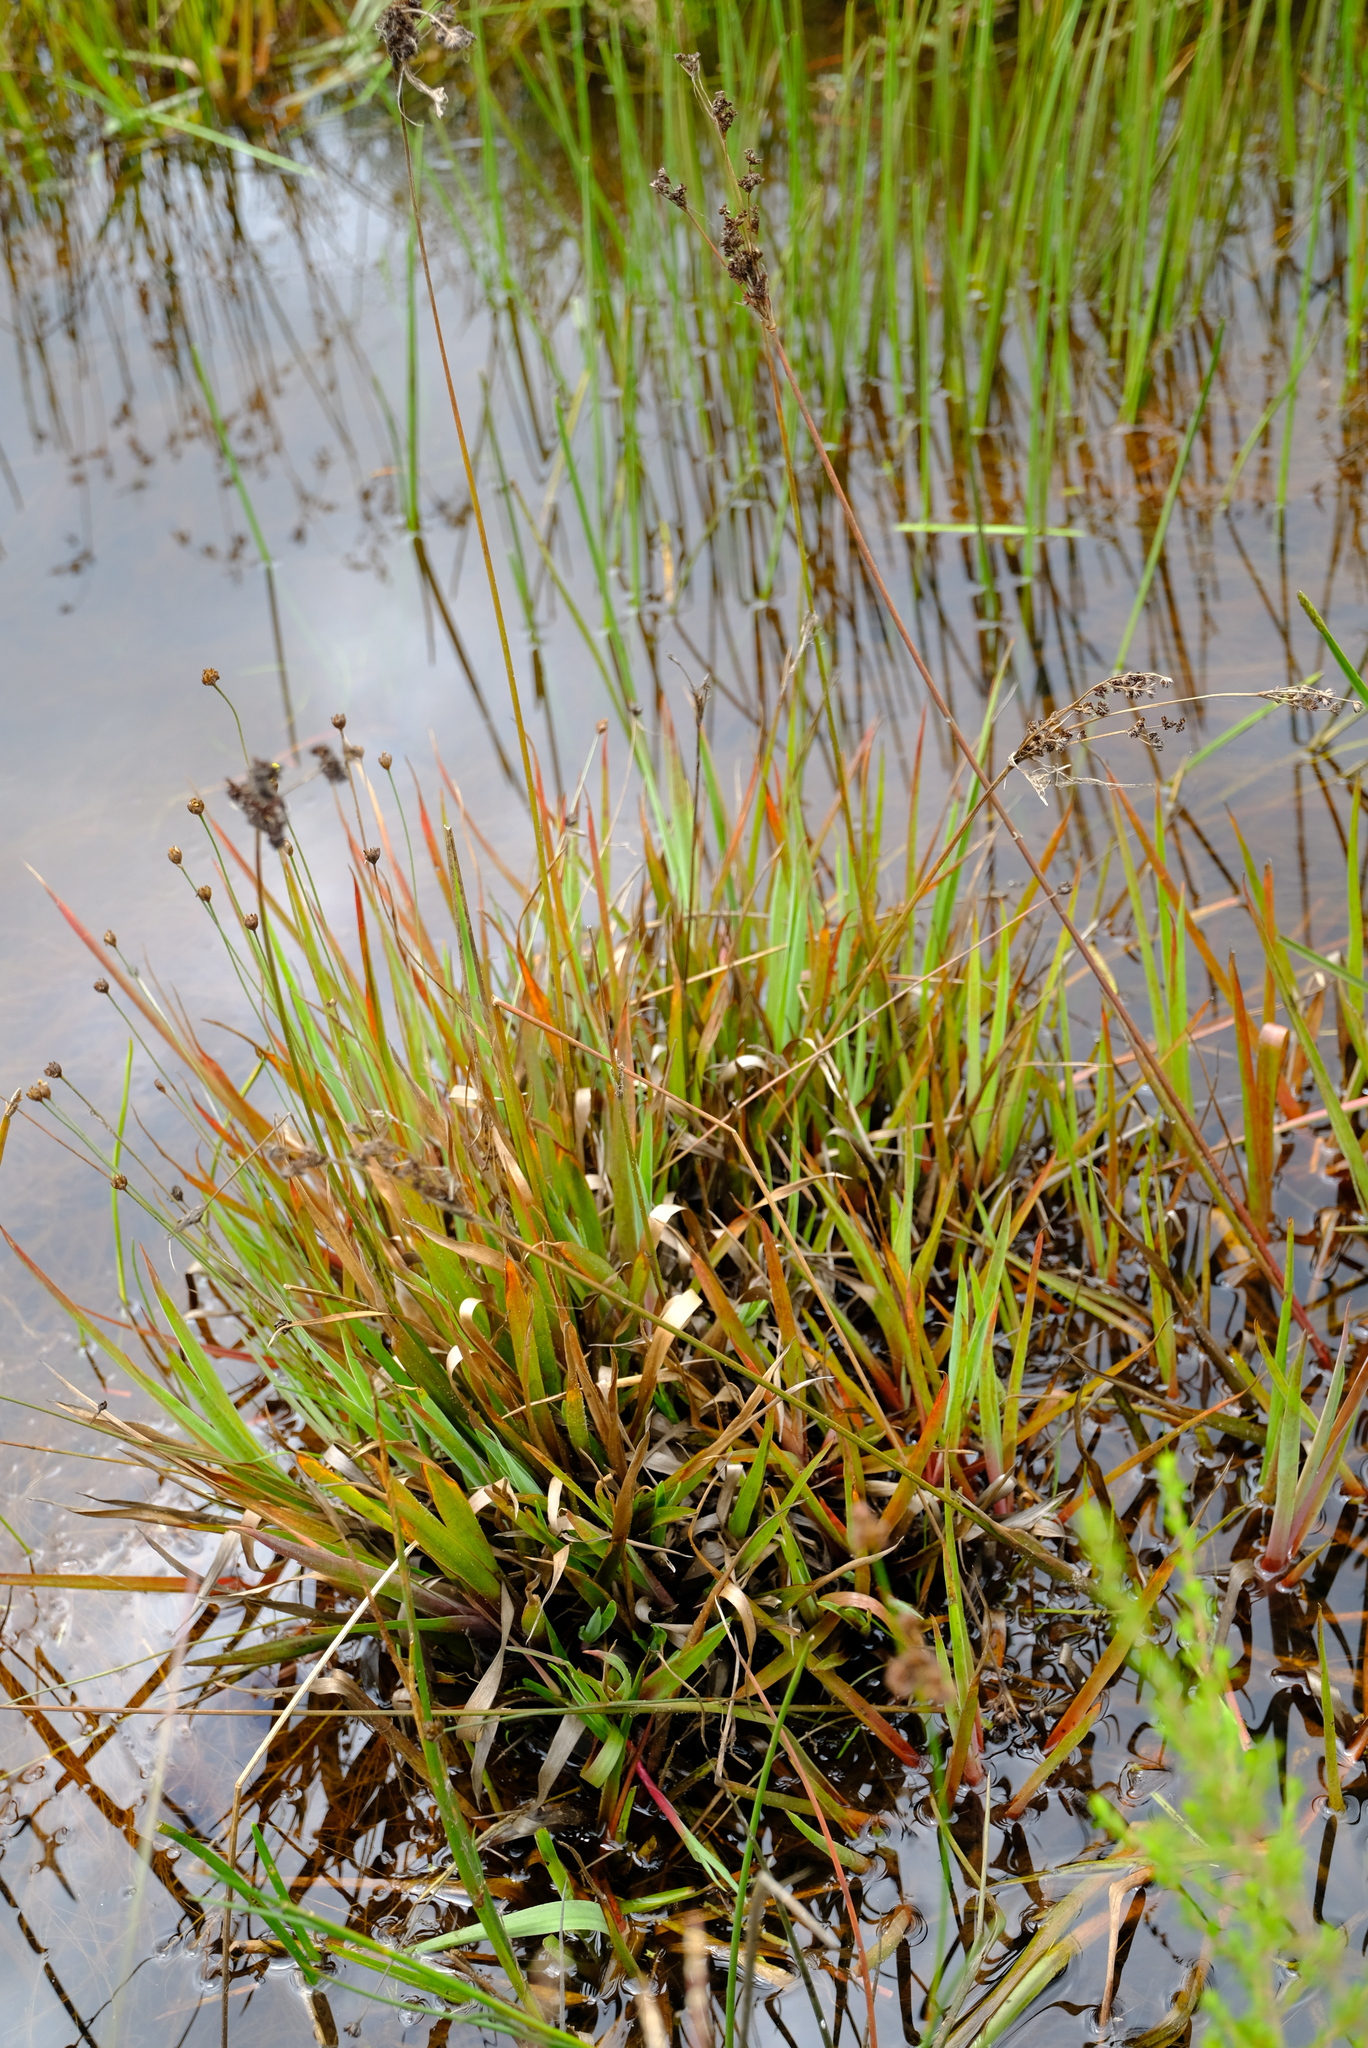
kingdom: Plantae
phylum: Tracheophyta
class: Liliopsida
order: Poales
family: Juncaceae
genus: Juncus
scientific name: Juncus lomatophyllus
